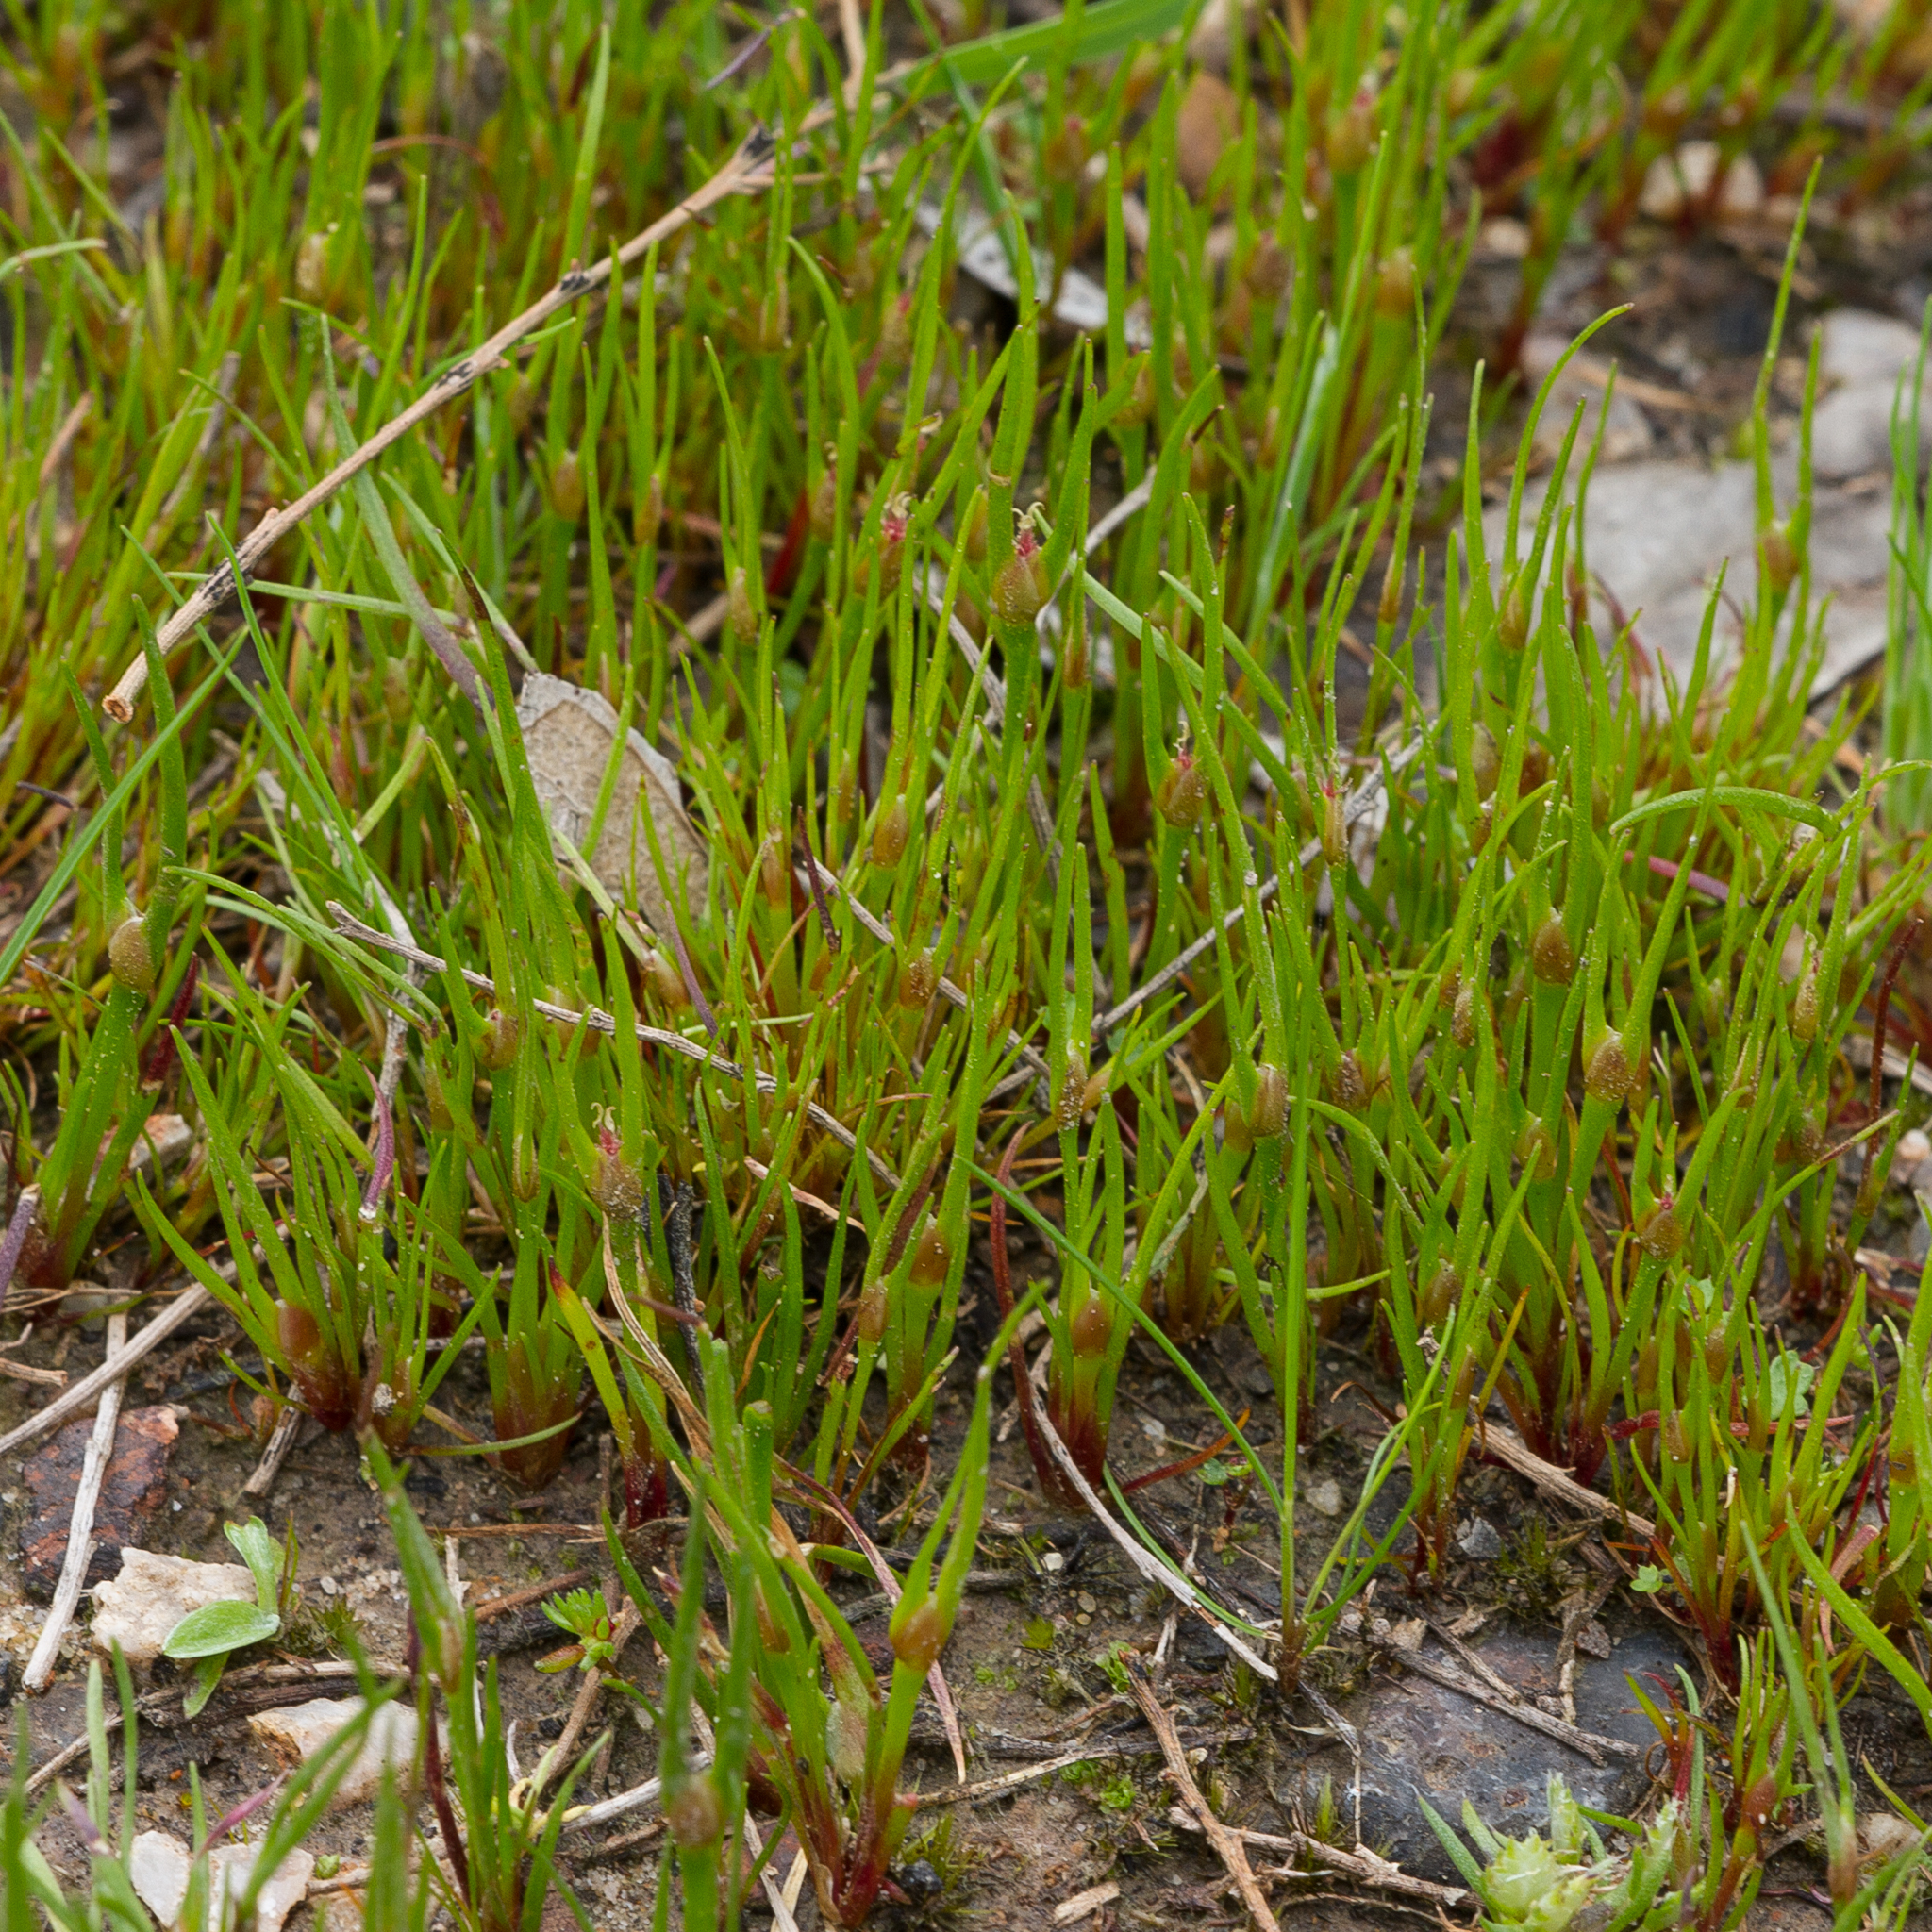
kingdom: Plantae
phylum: Tracheophyta
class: Liliopsida
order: Poales
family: Restionaceae
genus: Centrolepis
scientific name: Centrolepis aristata
